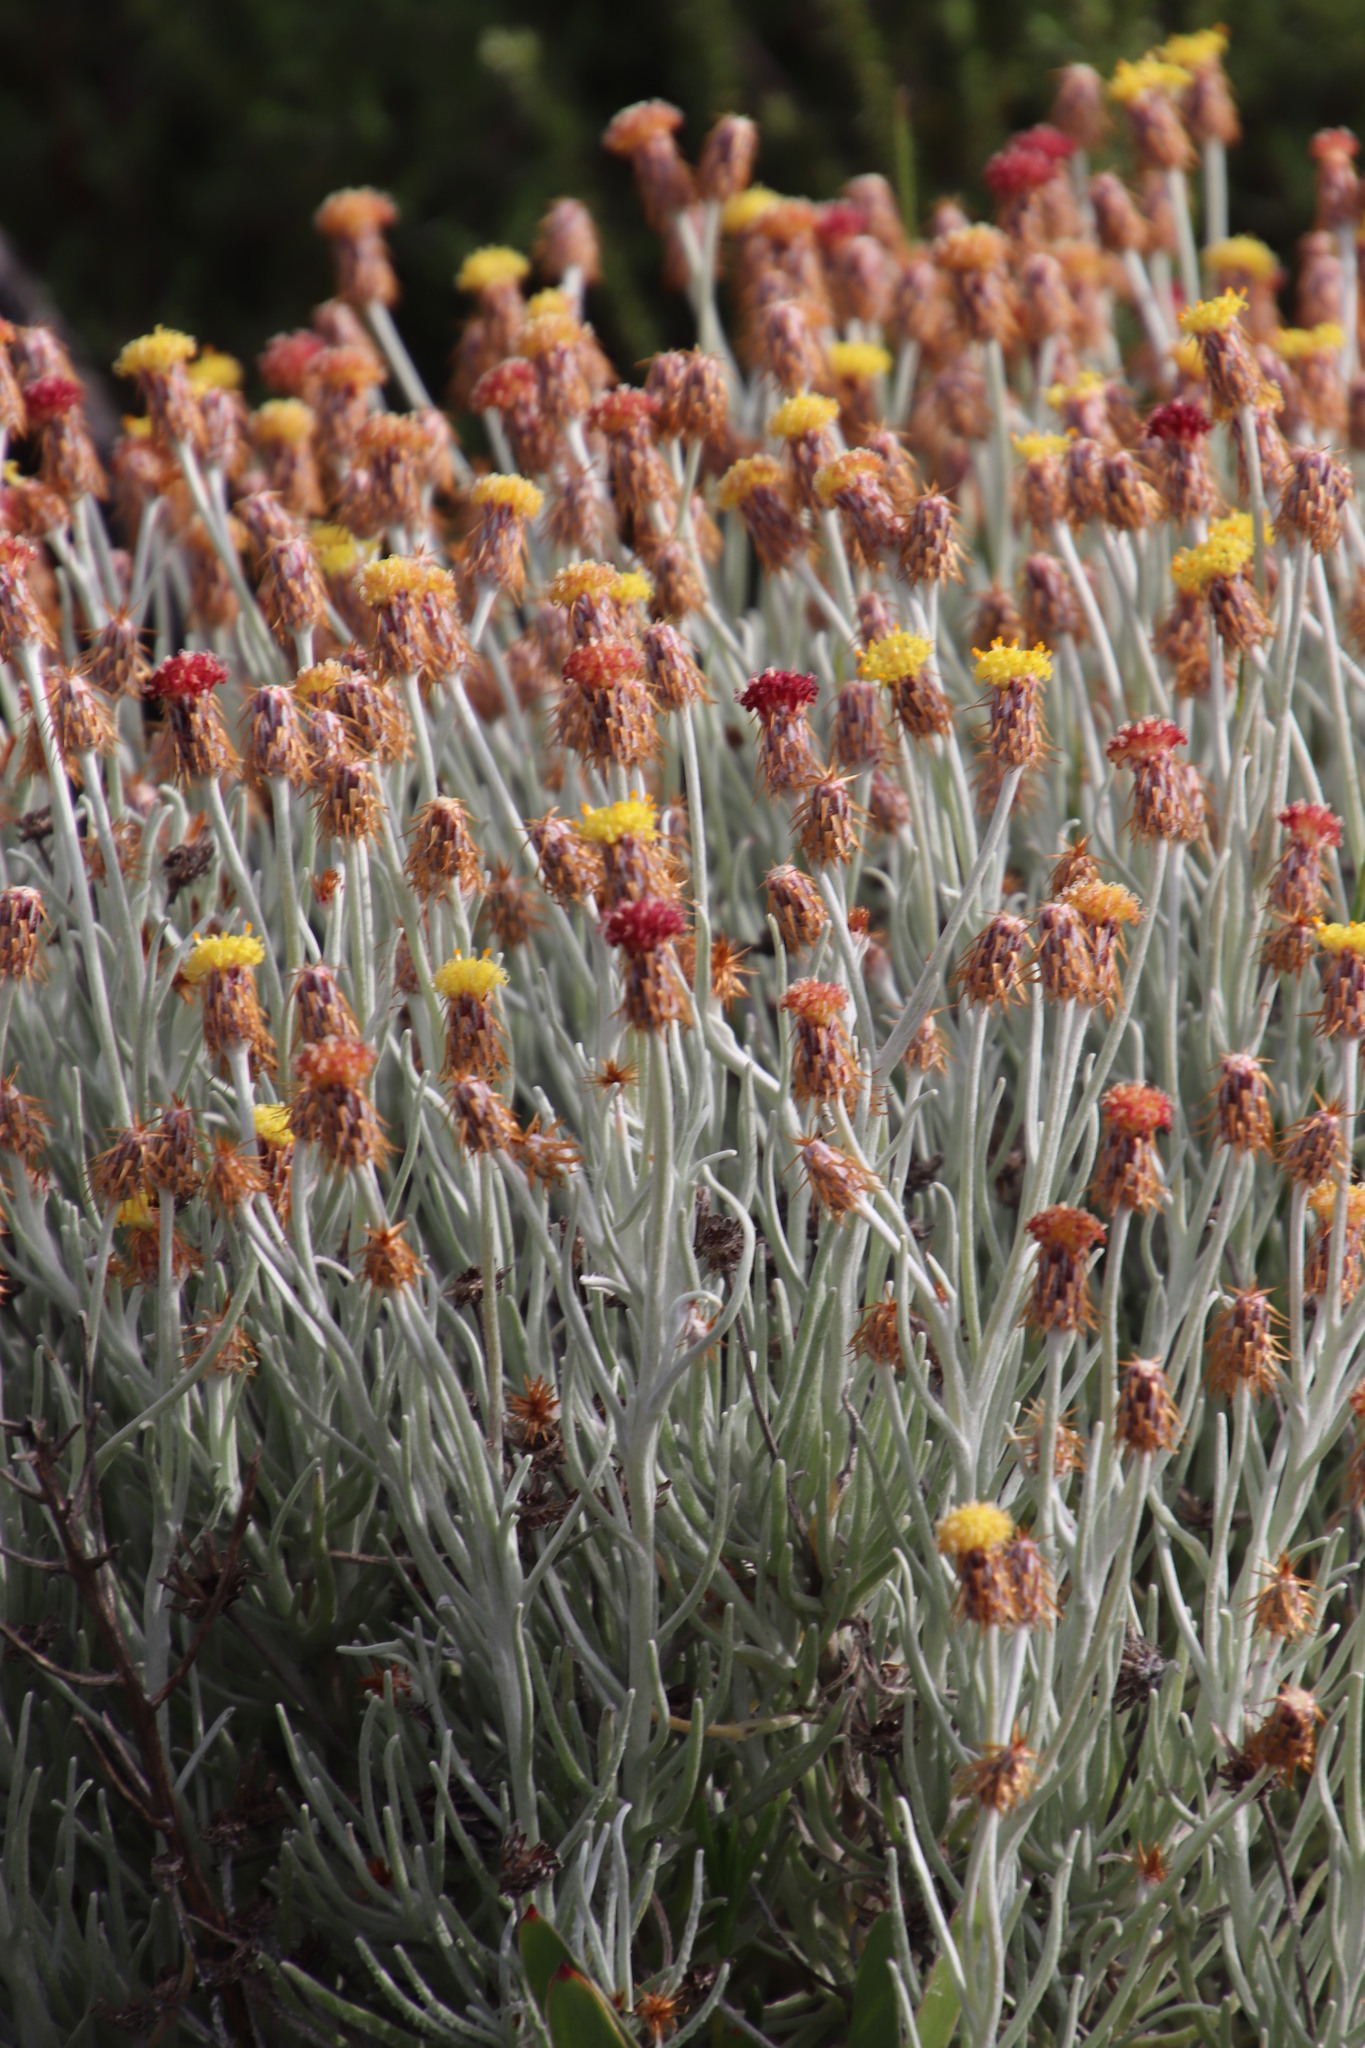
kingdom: Plantae
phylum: Tracheophyta
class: Magnoliopsida
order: Asterales
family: Asteraceae
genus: Syncarpha
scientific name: Syncarpha gnaphaloides
